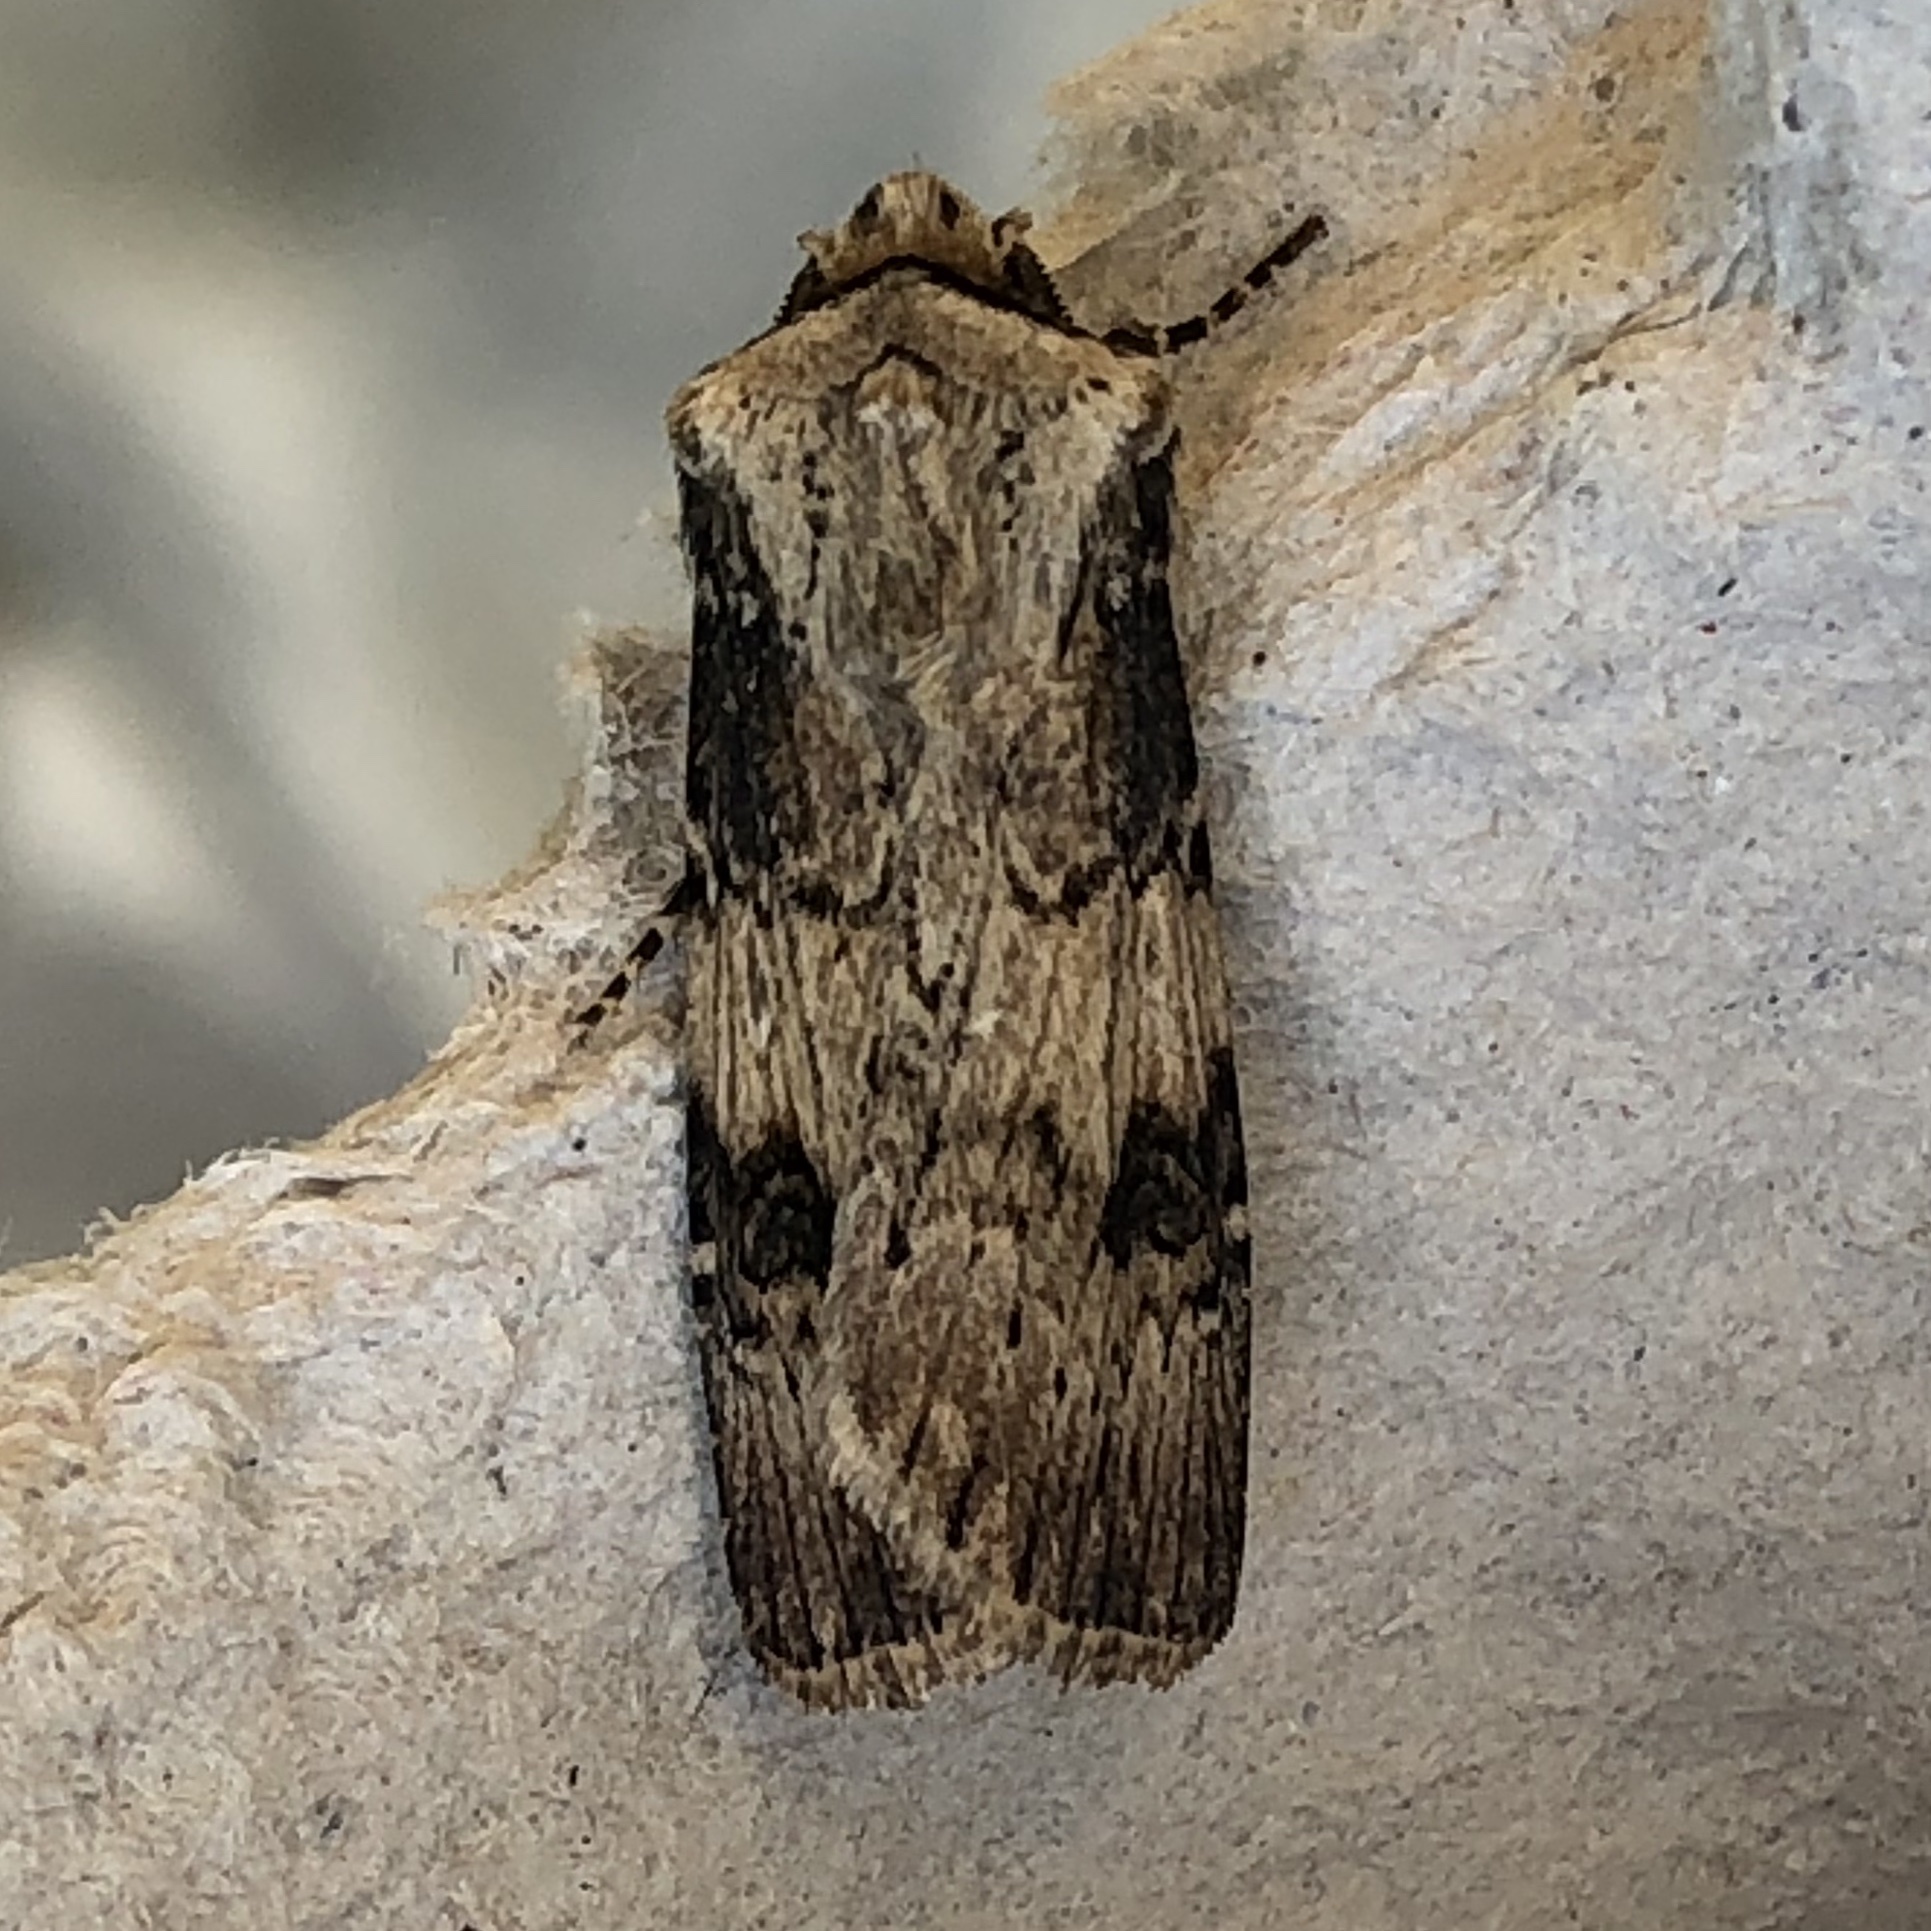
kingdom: Animalia
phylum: Arthropoda
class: Insecta
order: Lepidoptera
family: Noctuidae
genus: Agrotis
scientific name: Agrotis puta
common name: Shuttle-shaped dart
